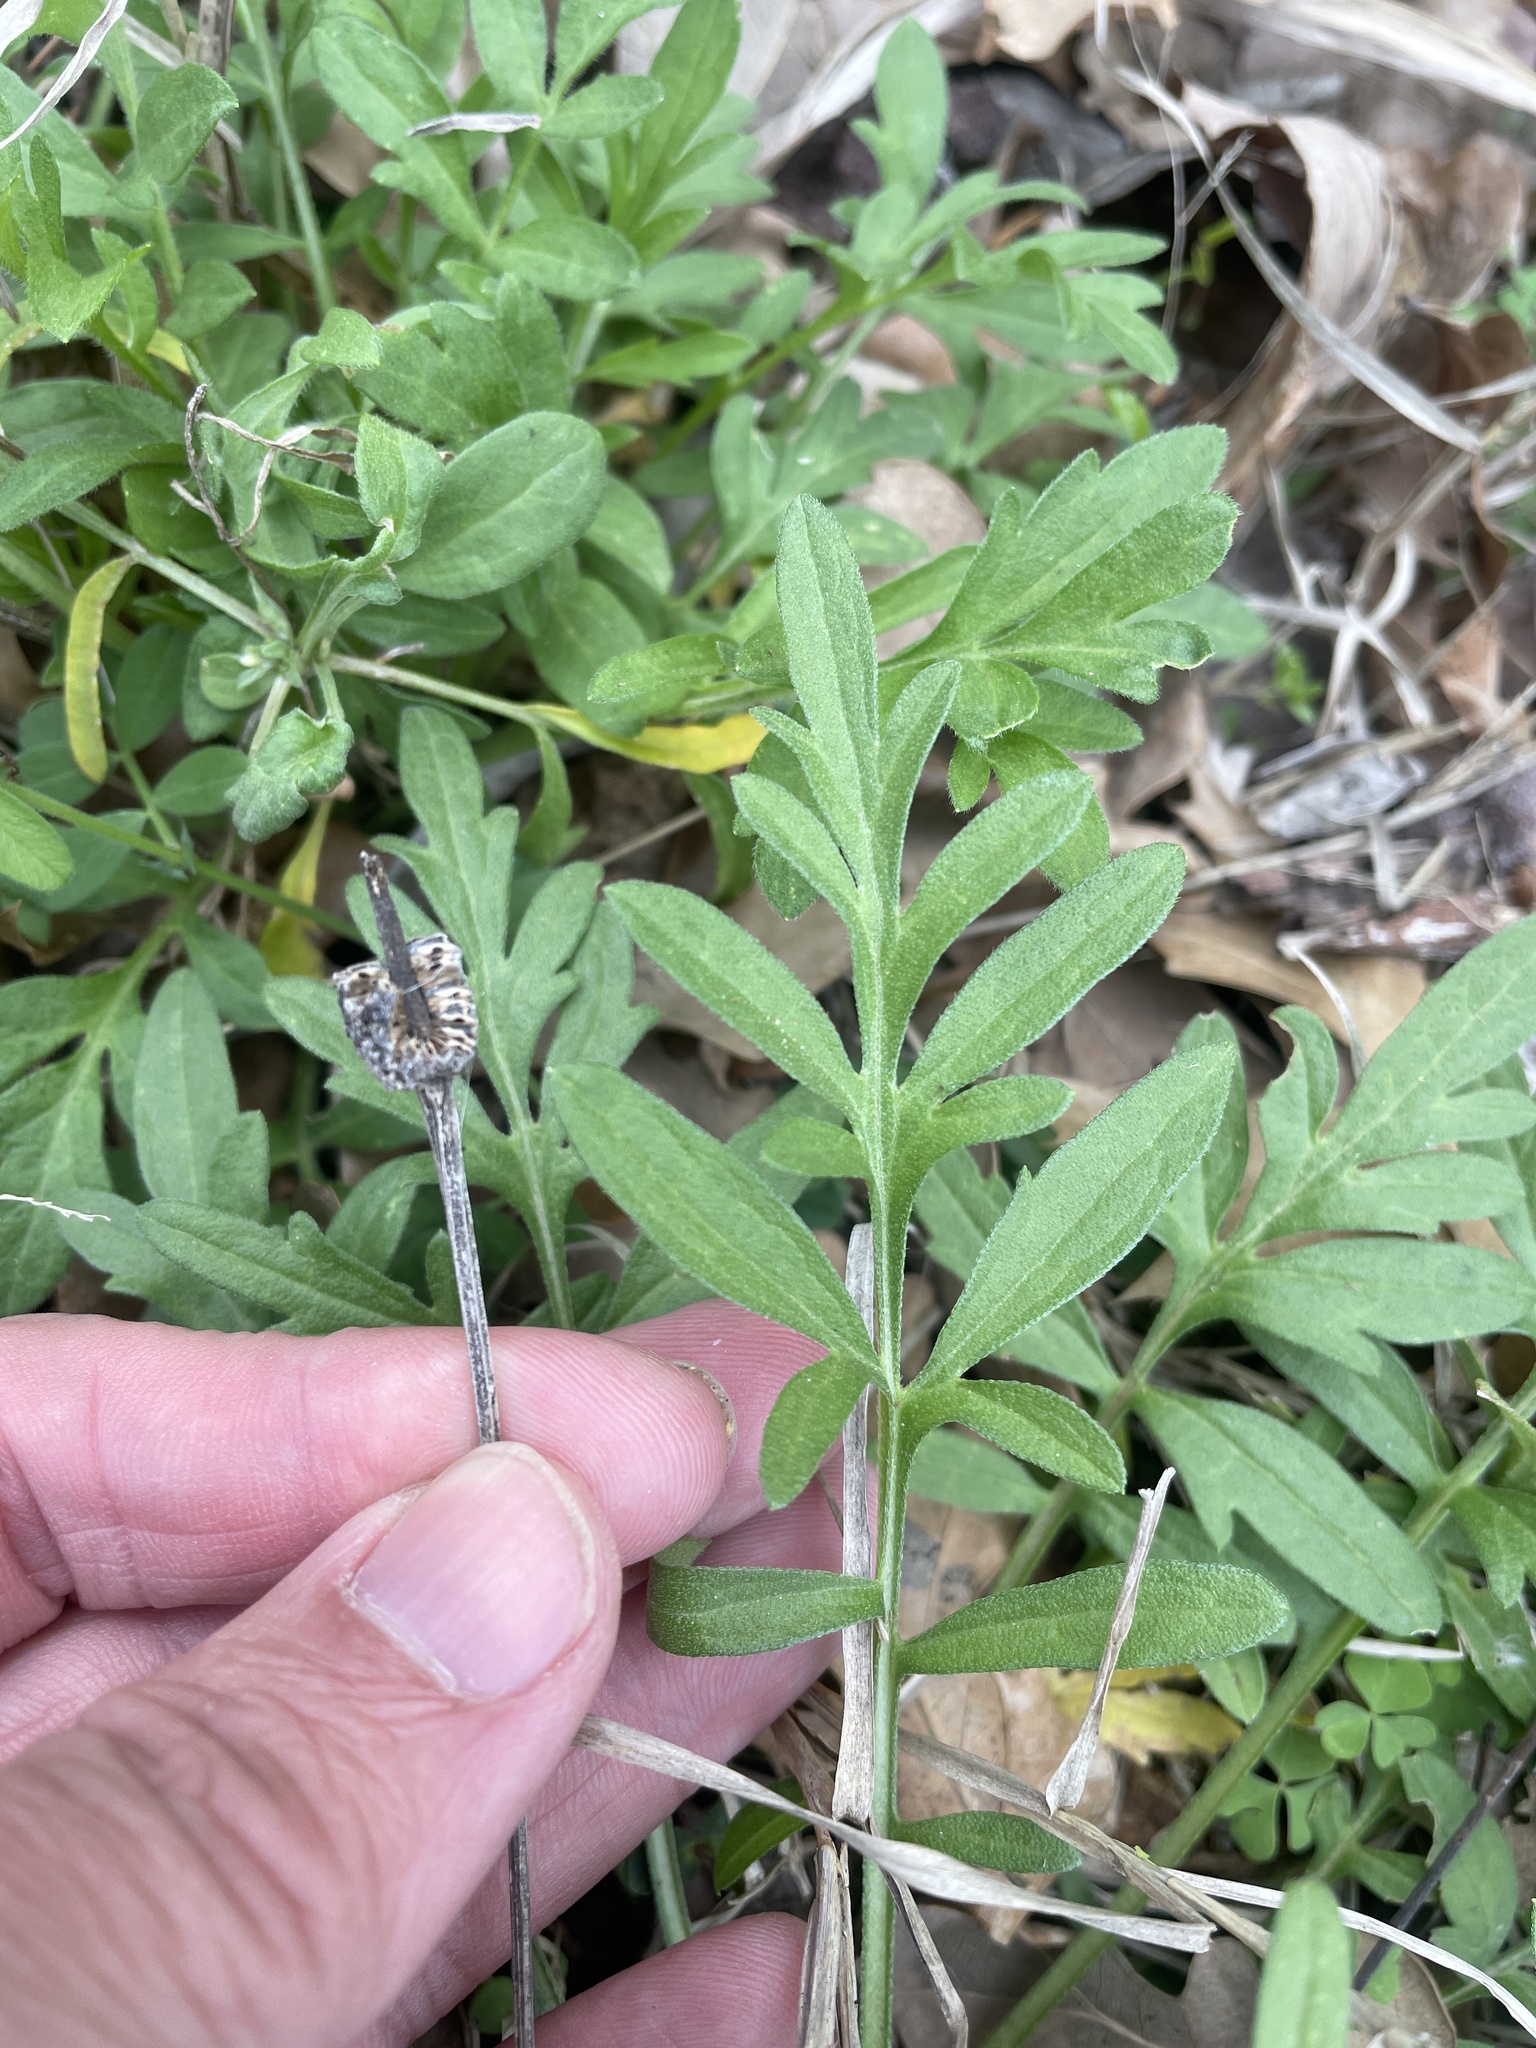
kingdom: Plantae
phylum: Tracheophyta
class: Magnoliopsida
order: Asterales
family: Asteraceae
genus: Ratibida
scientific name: Ratibida columnifera
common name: Prairie coneflower
